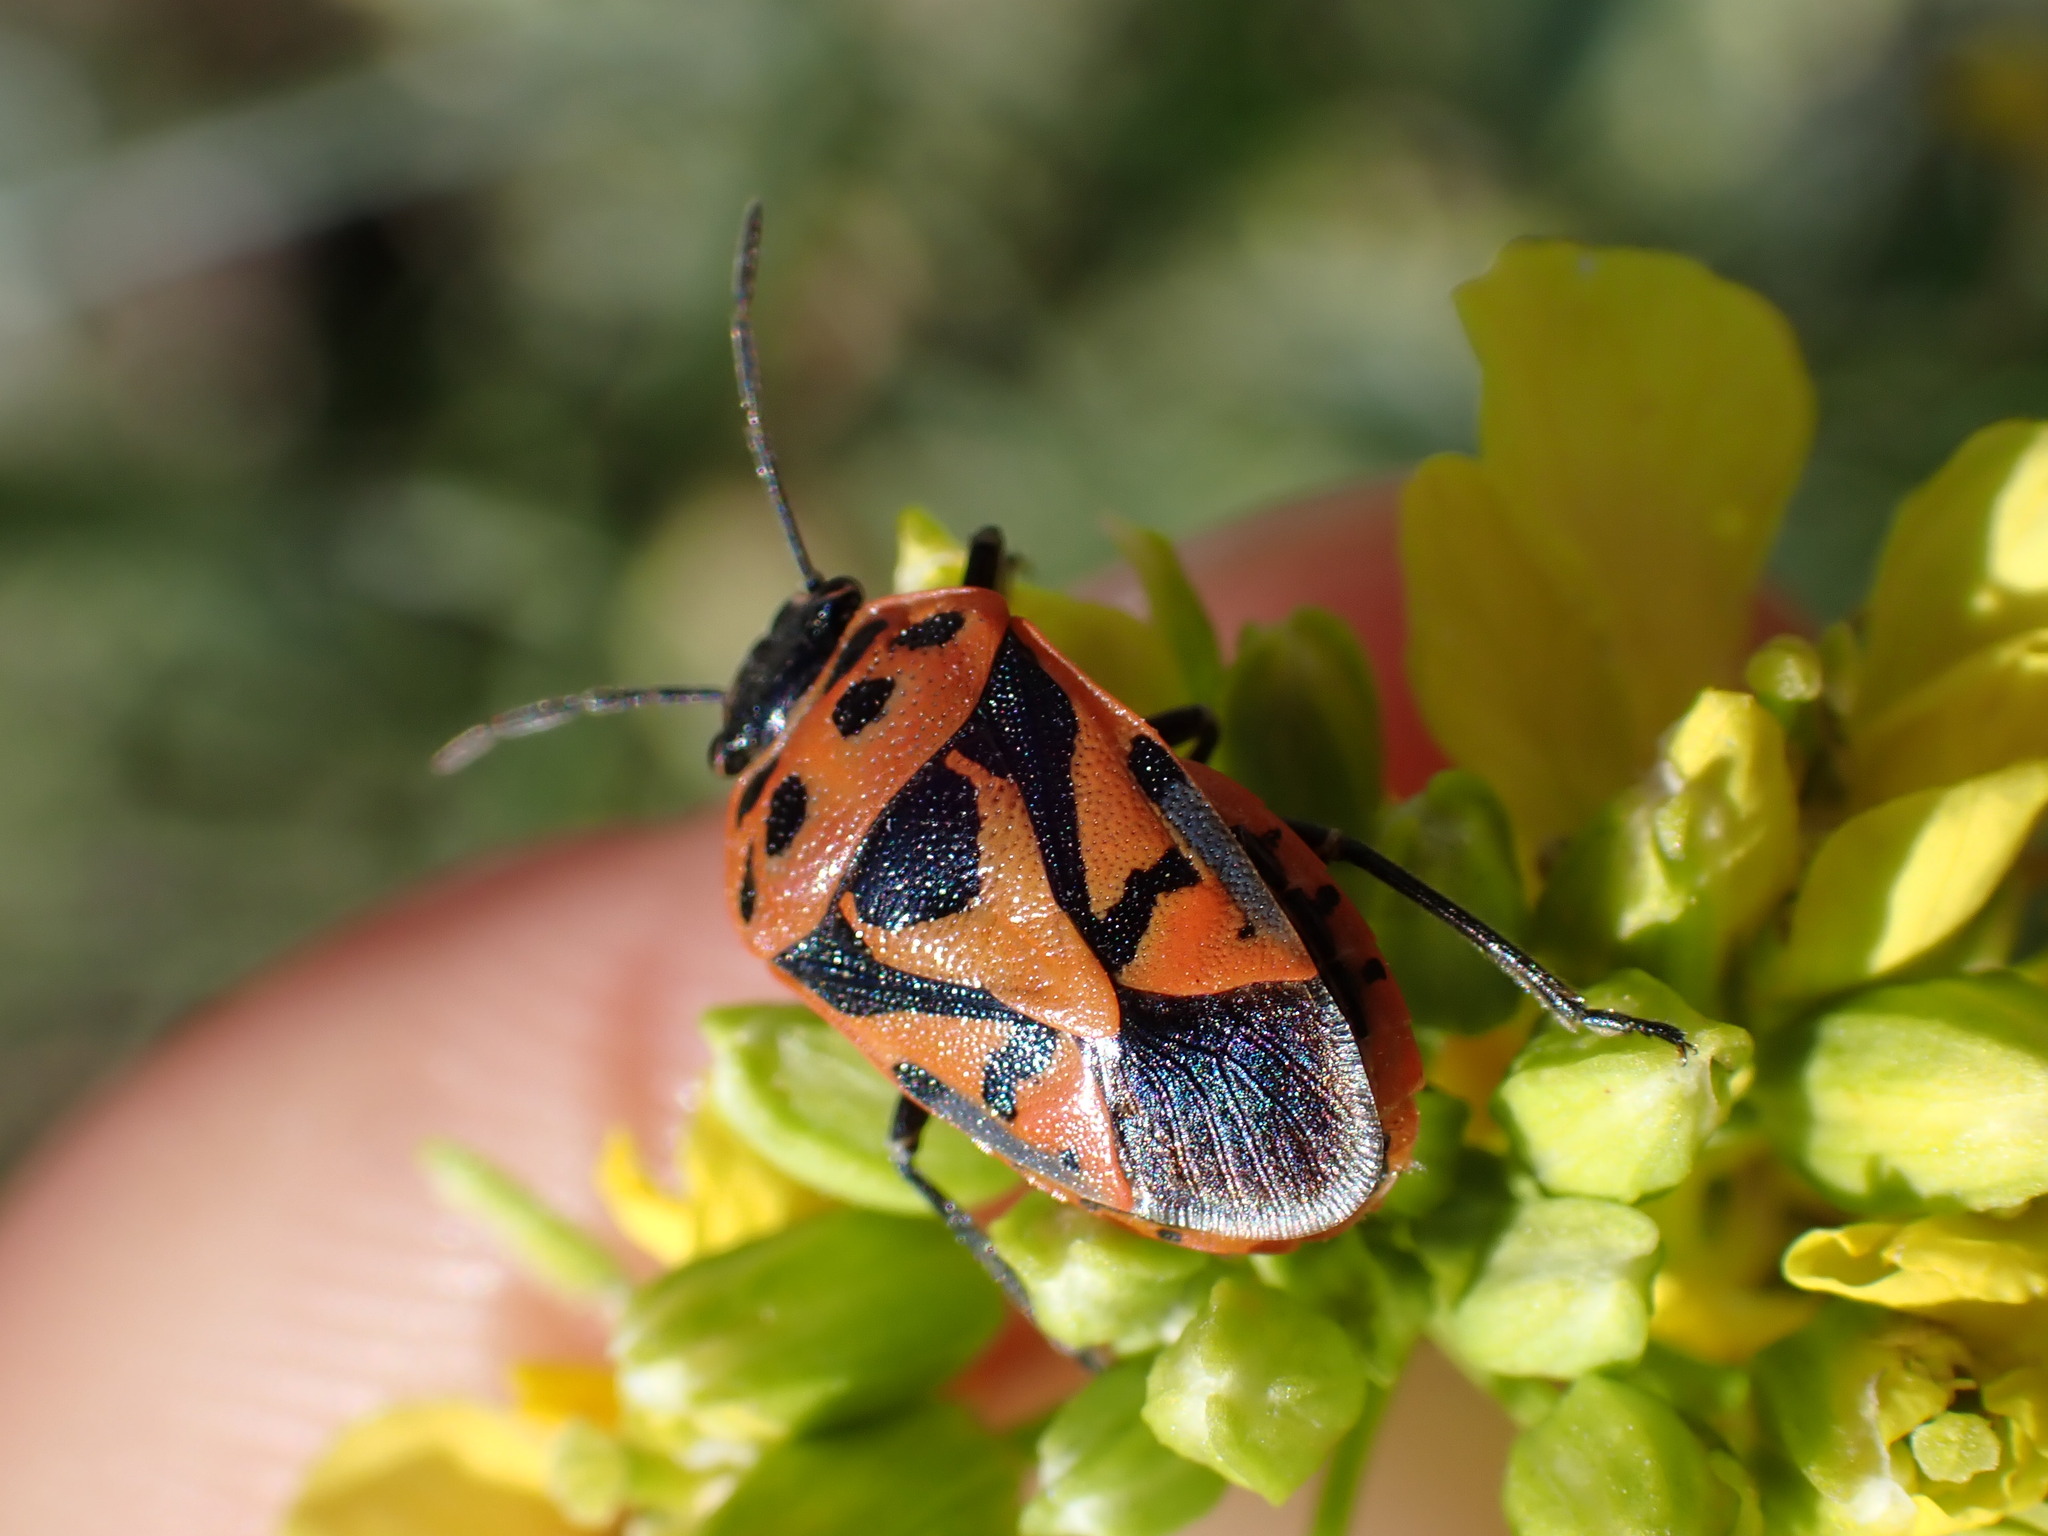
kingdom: Animalia
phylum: Arthropoda
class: Insecta
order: Hemiptera
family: Pentatomidae
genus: Eurydema
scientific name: Eurydema ornata
